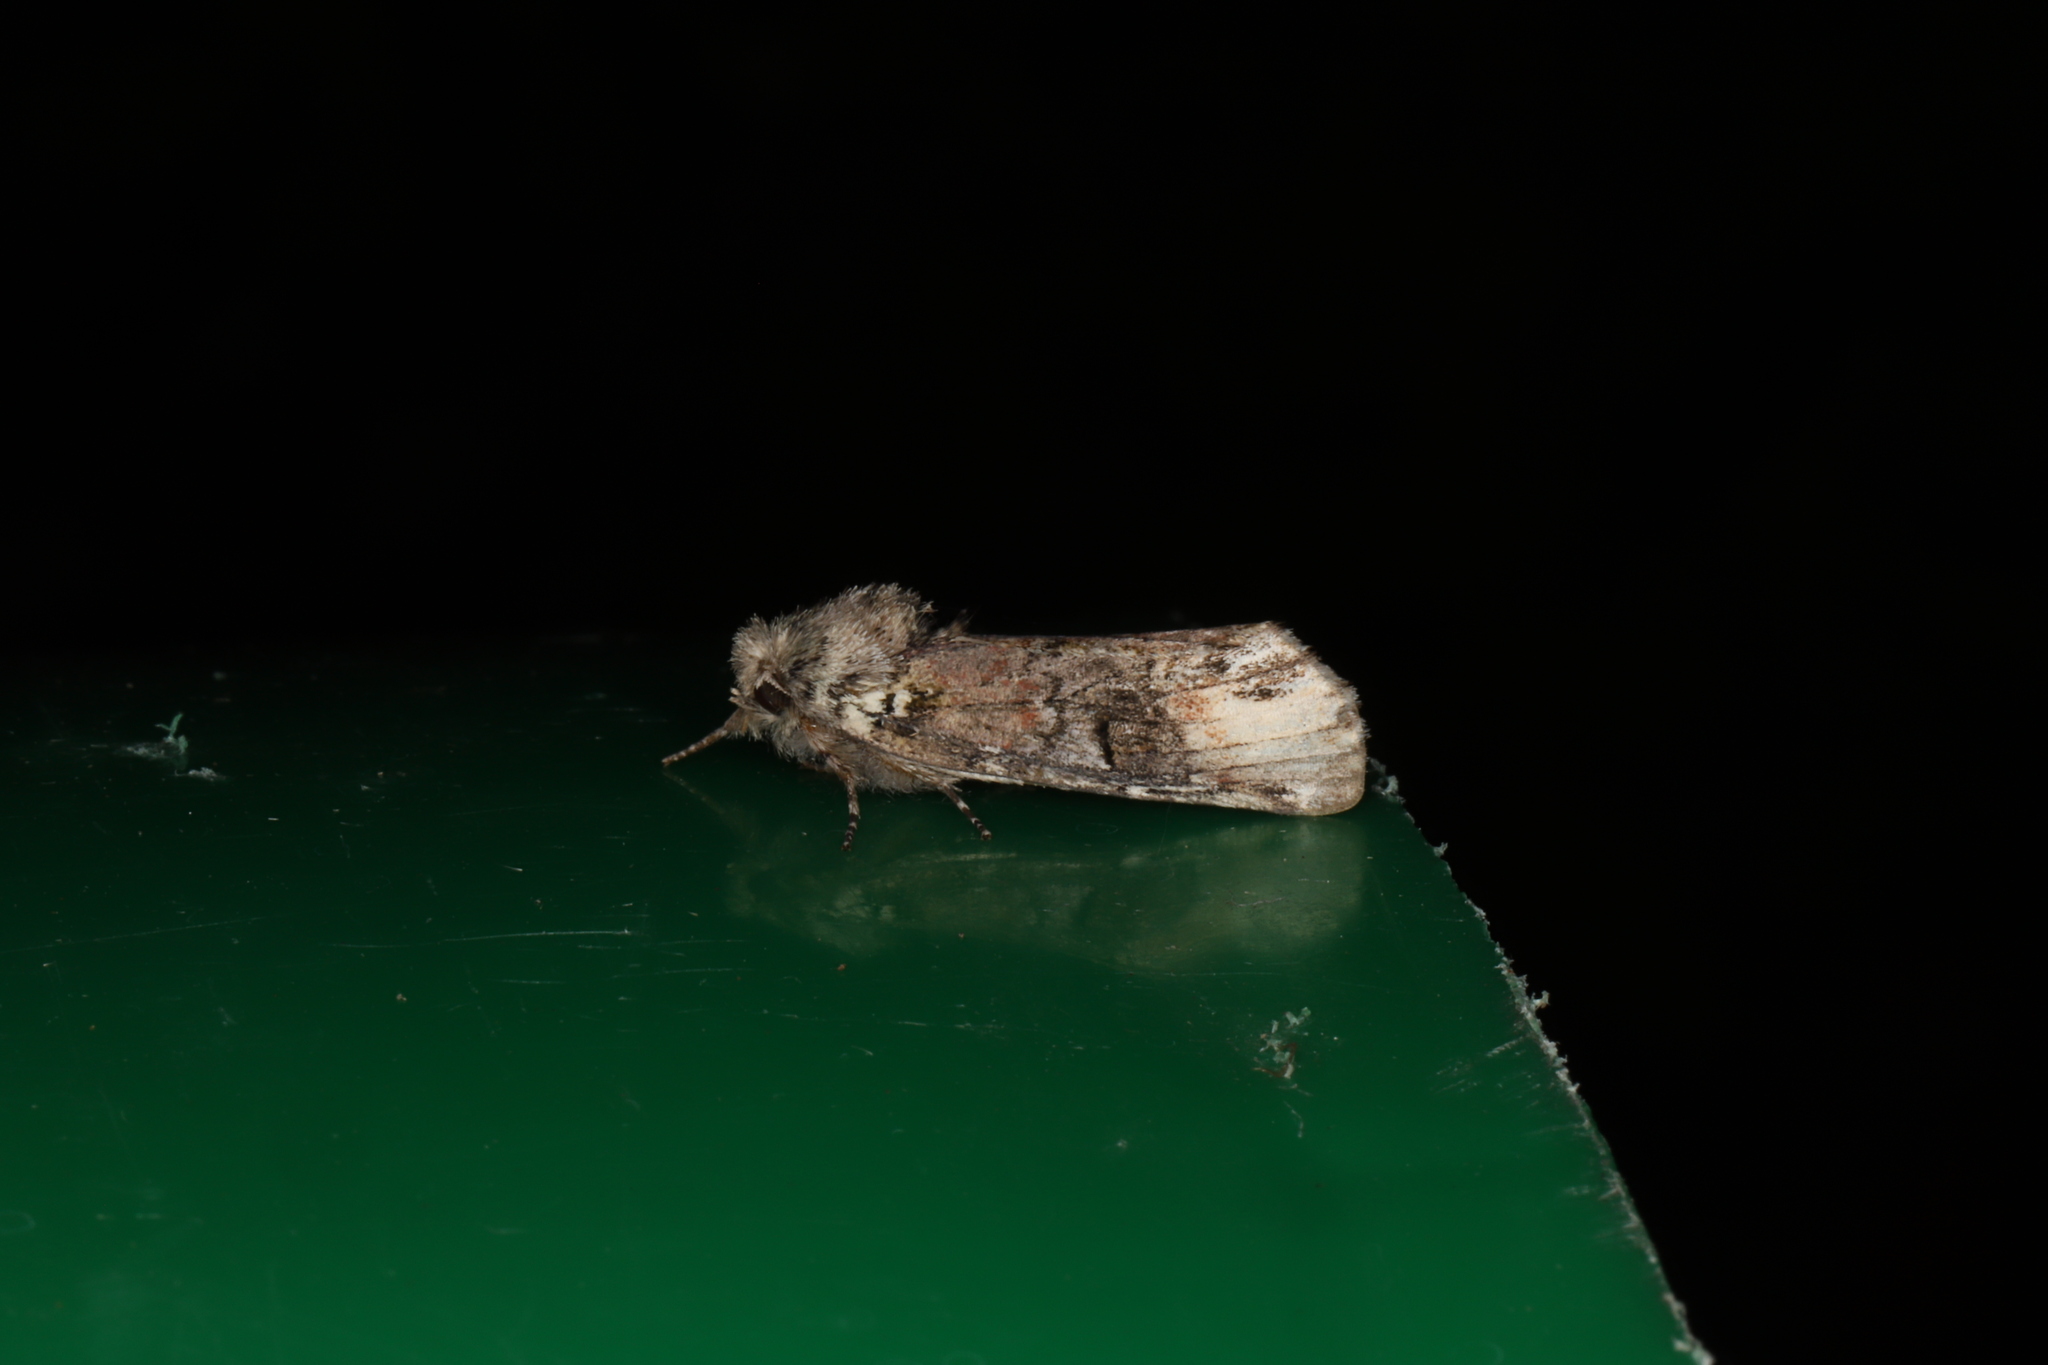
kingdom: Animalia
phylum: Arthropoda
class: Insecta
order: Lepidoptera
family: Notodontidae
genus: Schizura
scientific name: Schizura
